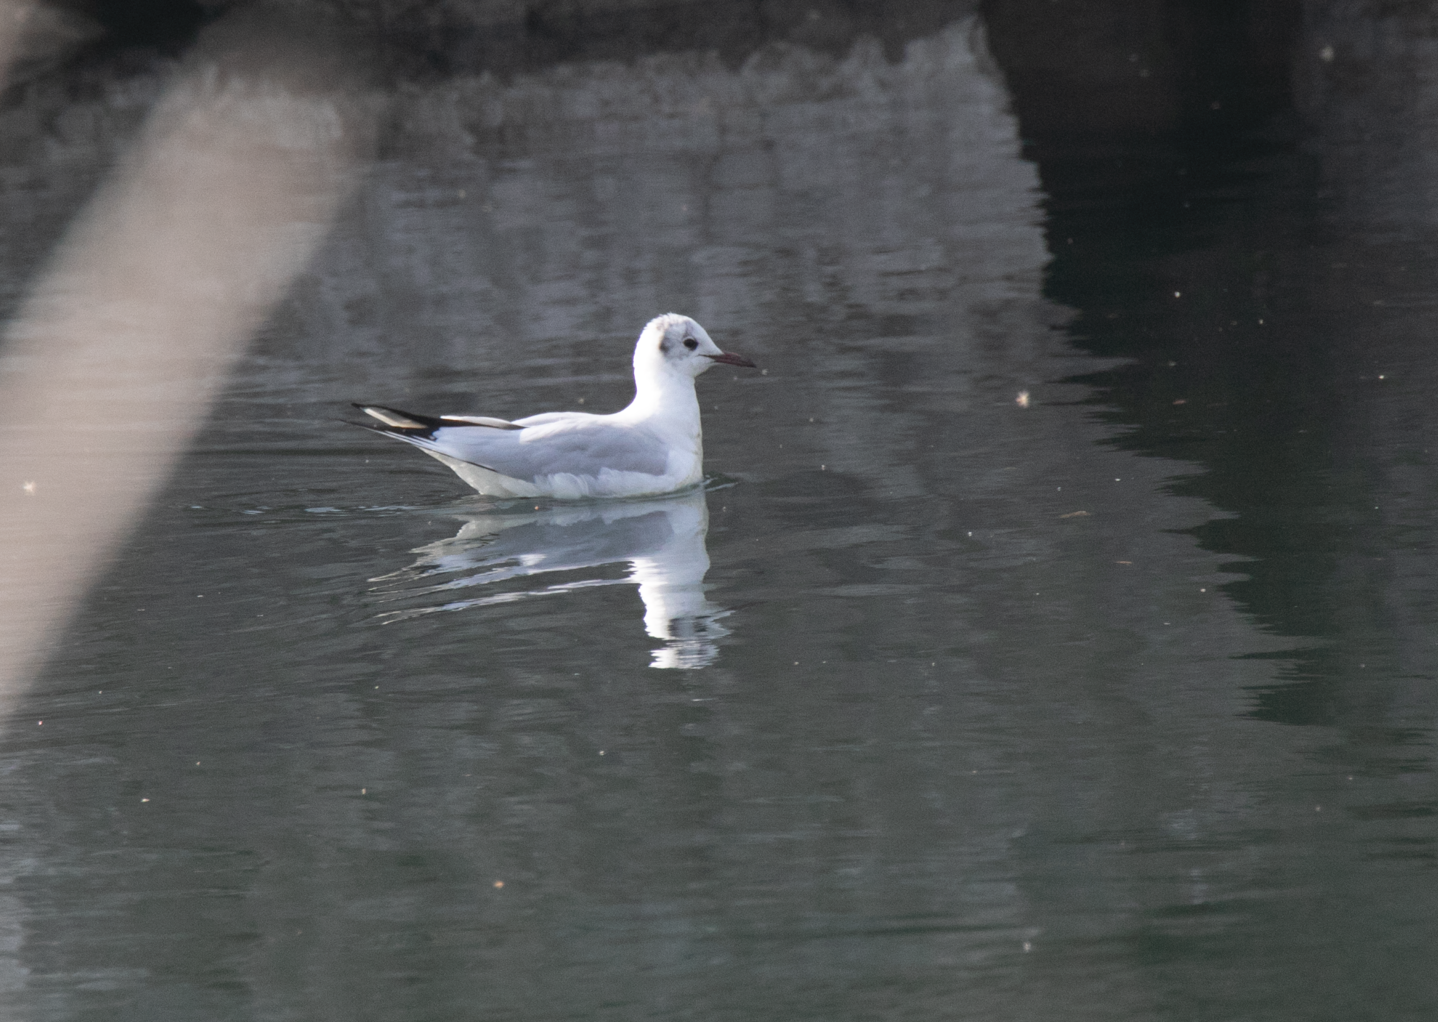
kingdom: Animalia
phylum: Chordata
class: Aves
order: Charadriiformes
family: Laridae
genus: Chroicocephalus
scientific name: Chroicocephalus ridibundus
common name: Black-headed gull
